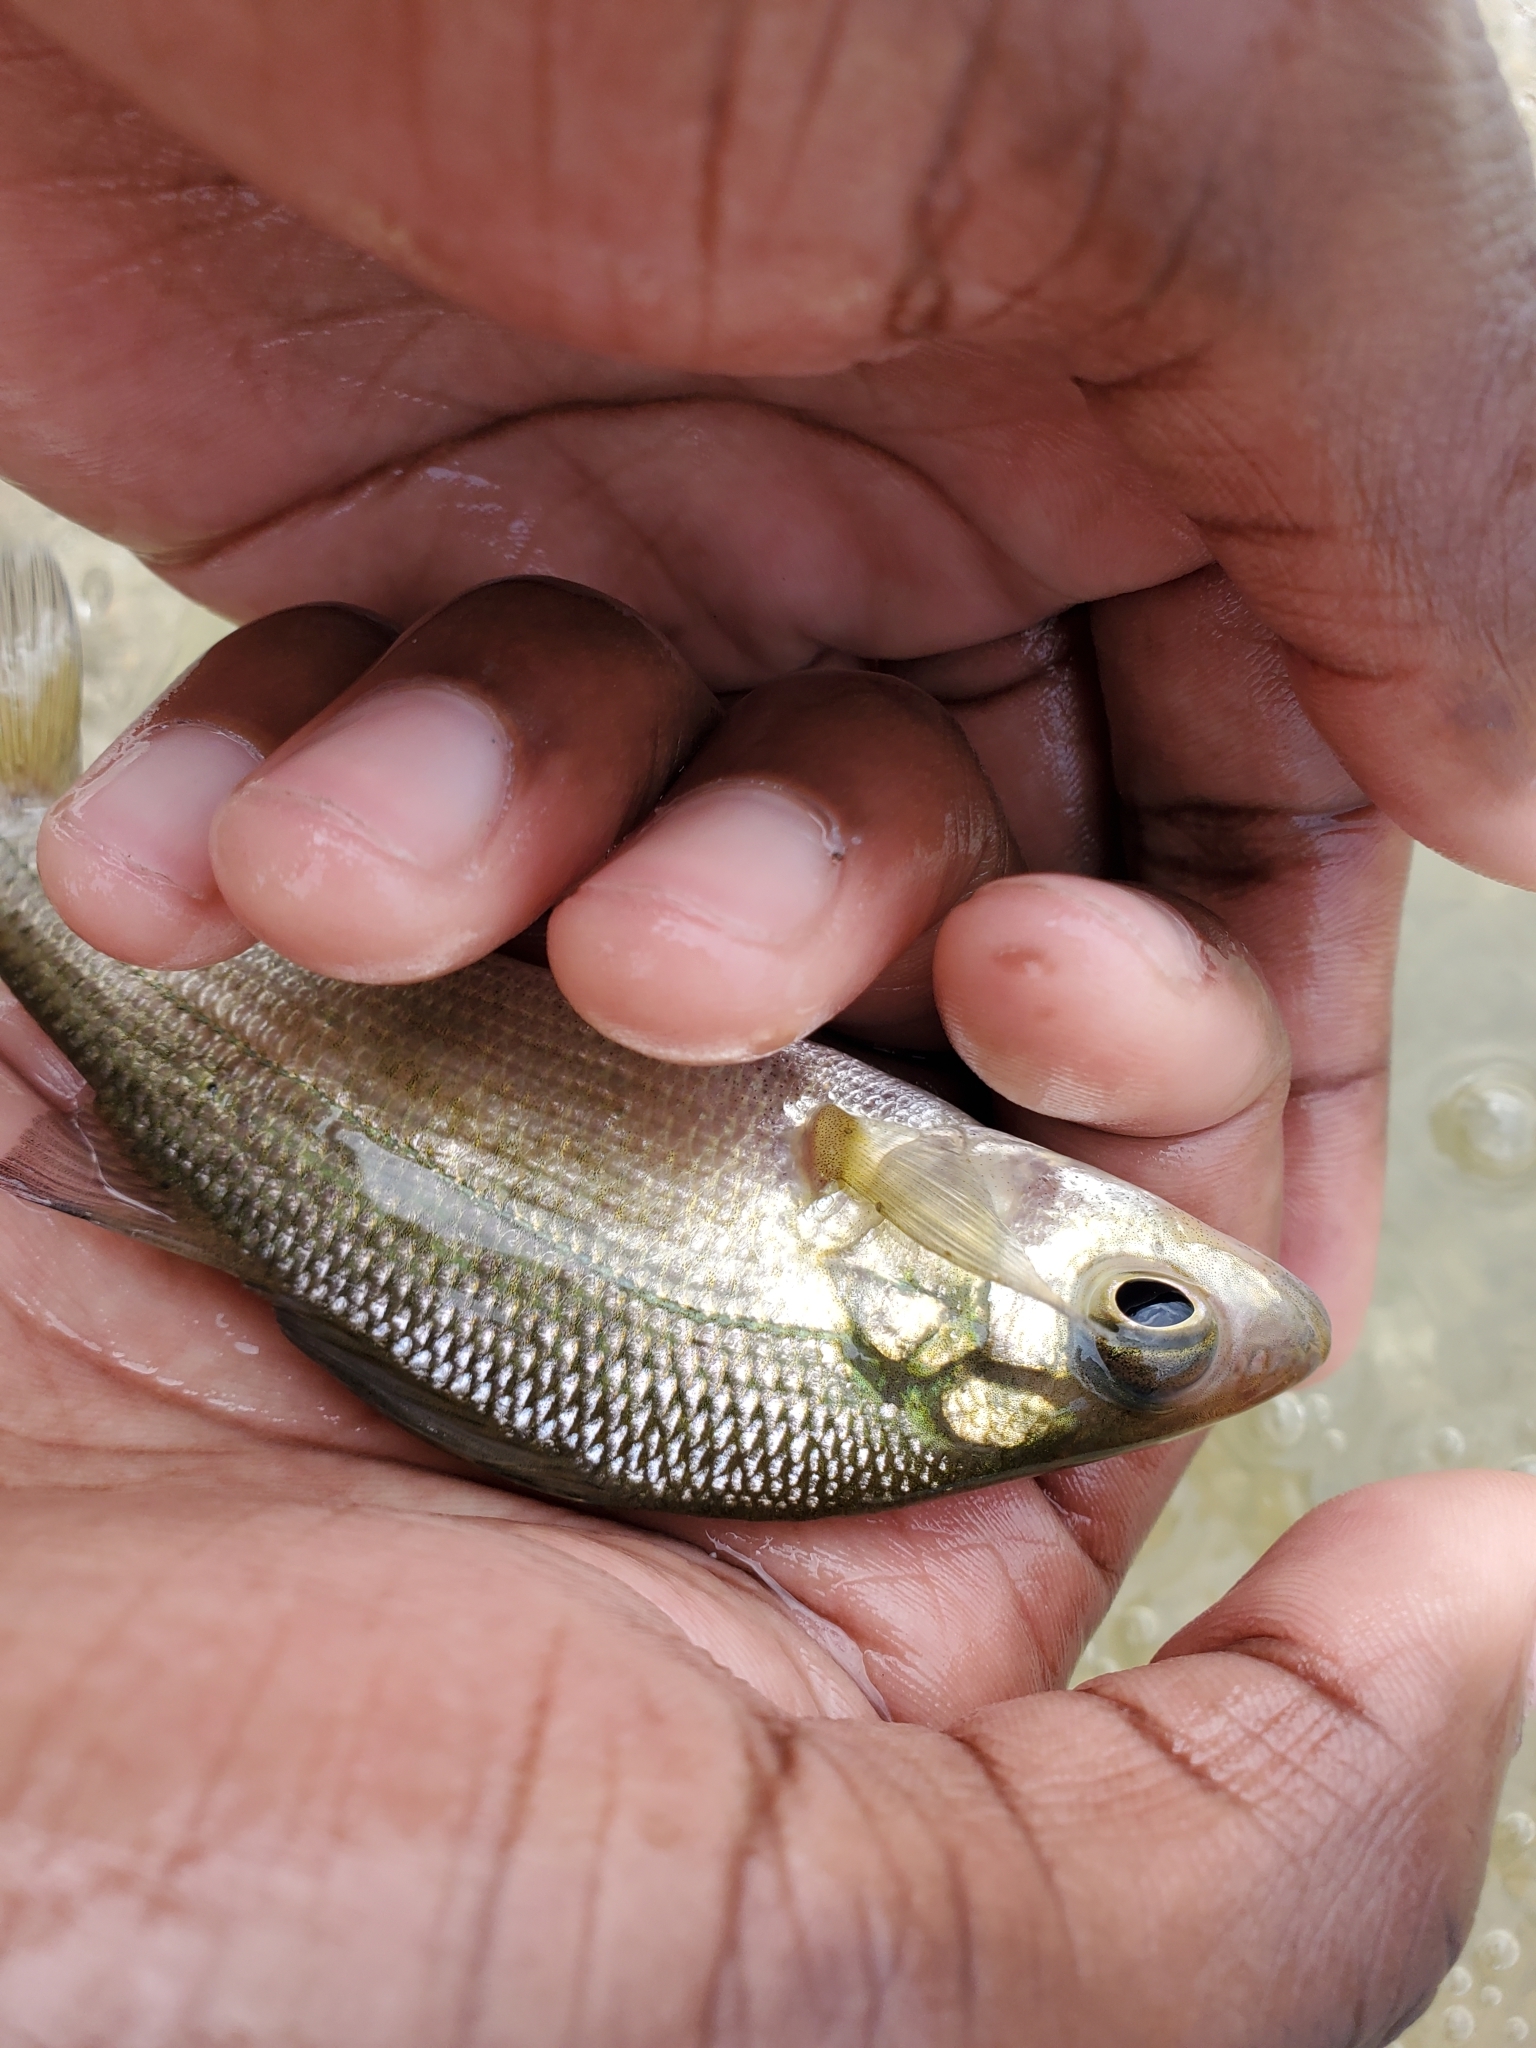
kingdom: Animalia
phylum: Chordata
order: Perciformes
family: Moronidae
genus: Morone
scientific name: Morone americana
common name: White perch
